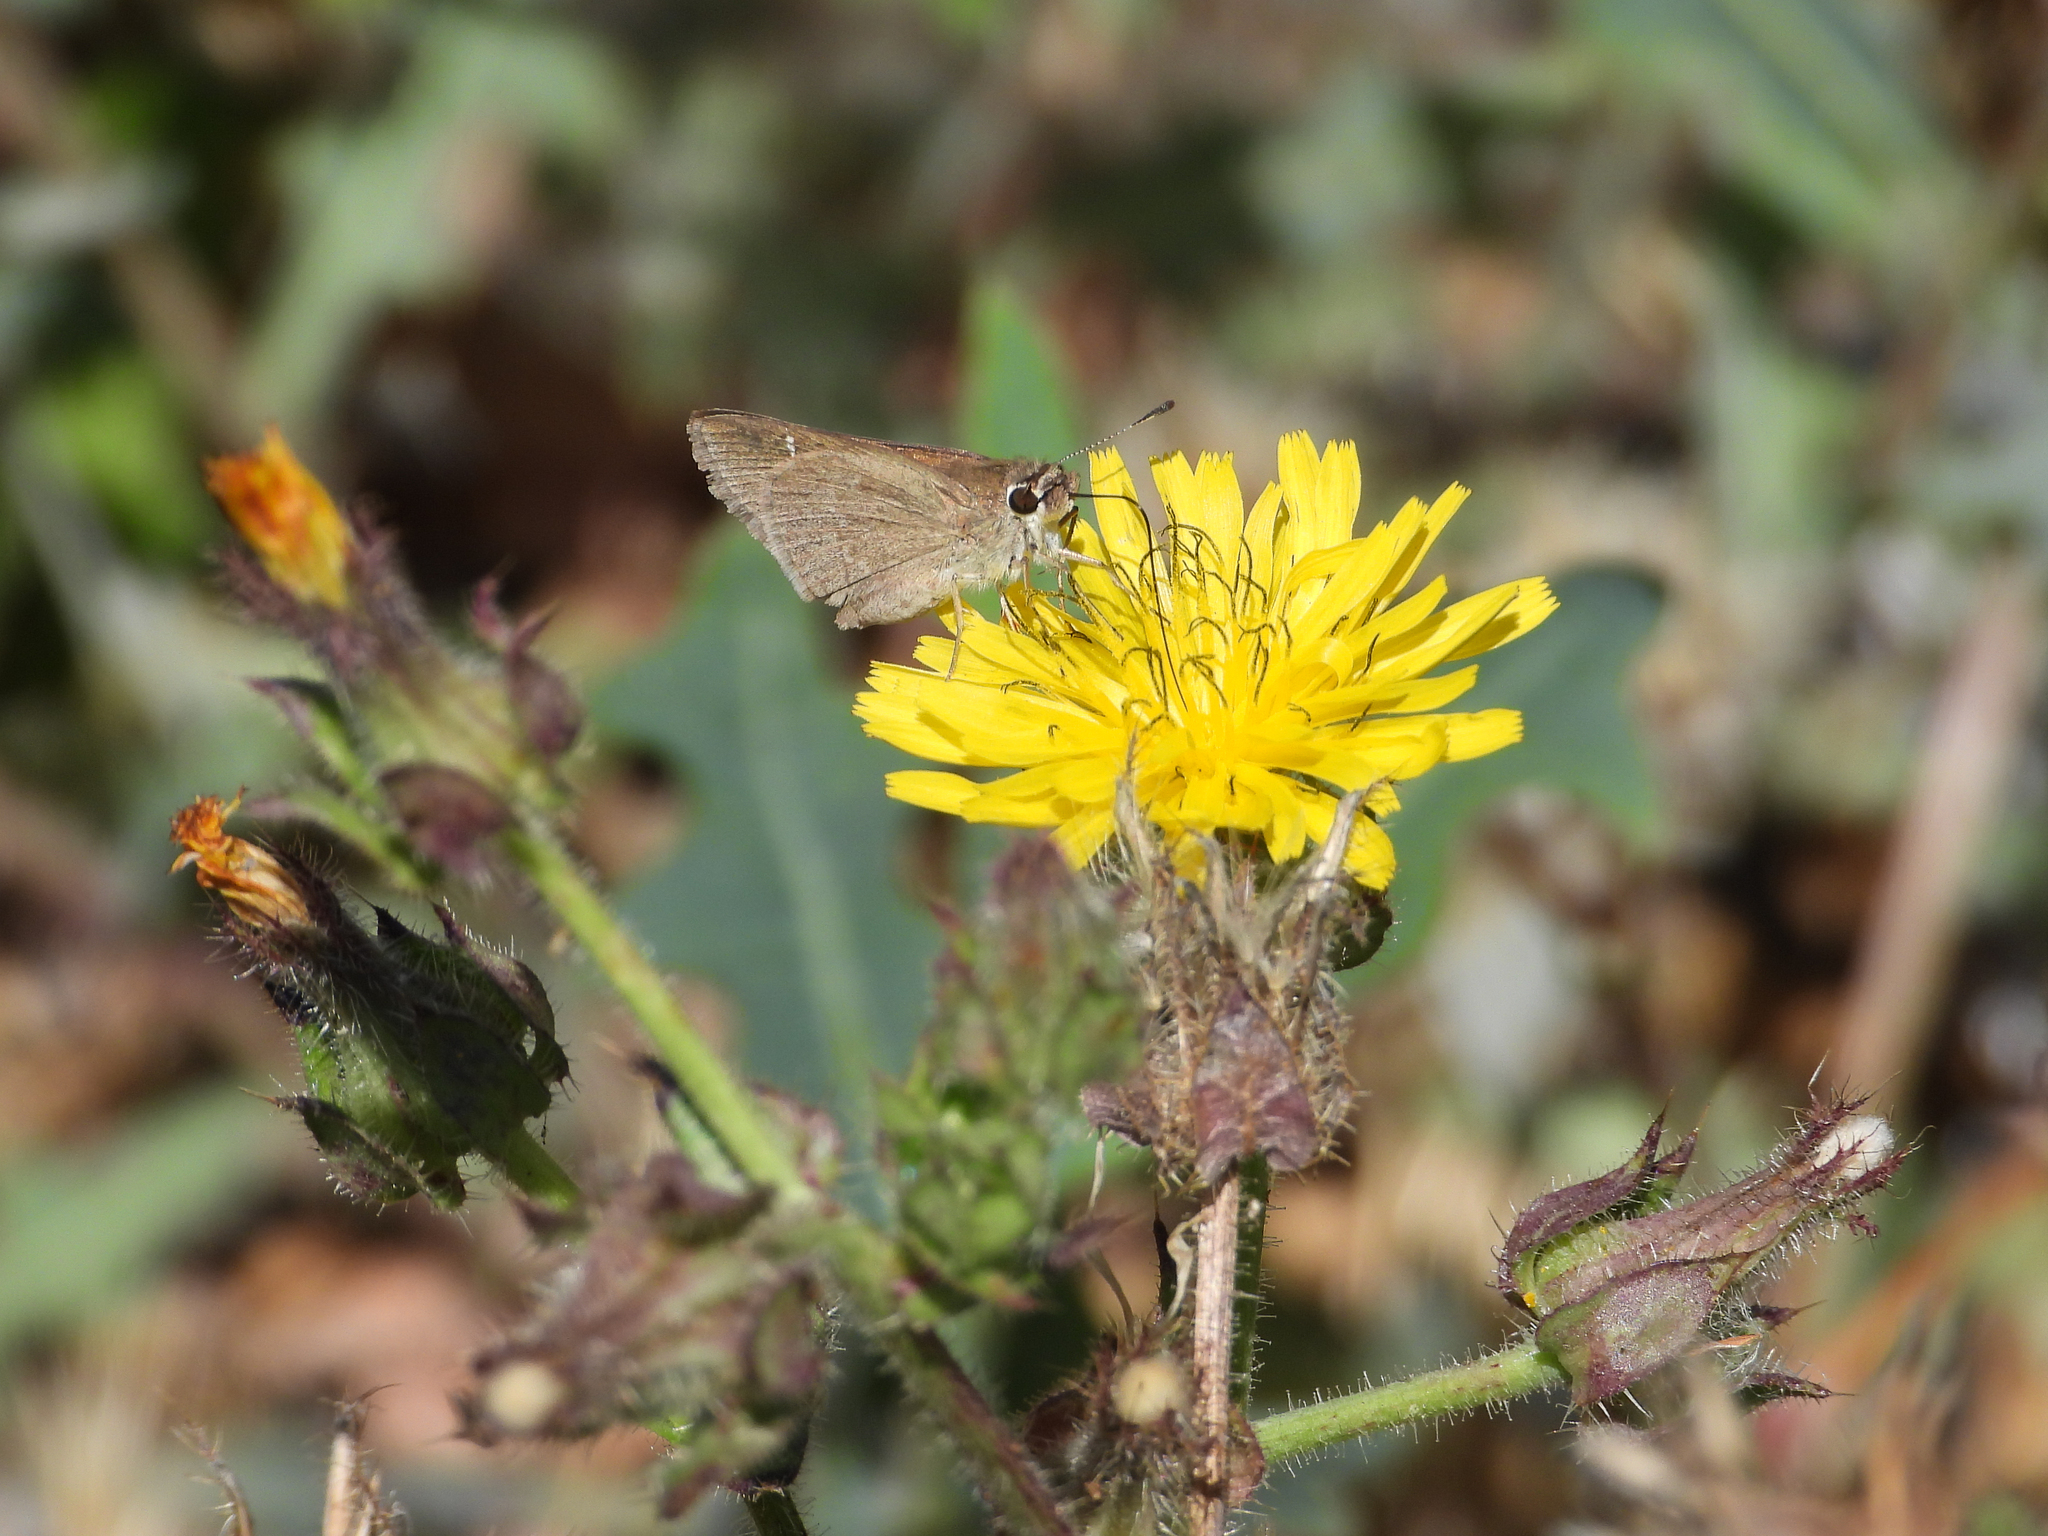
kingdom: Animalia
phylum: Arthropoda
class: Insecta
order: Lepidoptera
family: Hesperiidae
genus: Lerodea
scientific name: Lerodea eufala
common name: Eufala skipper
